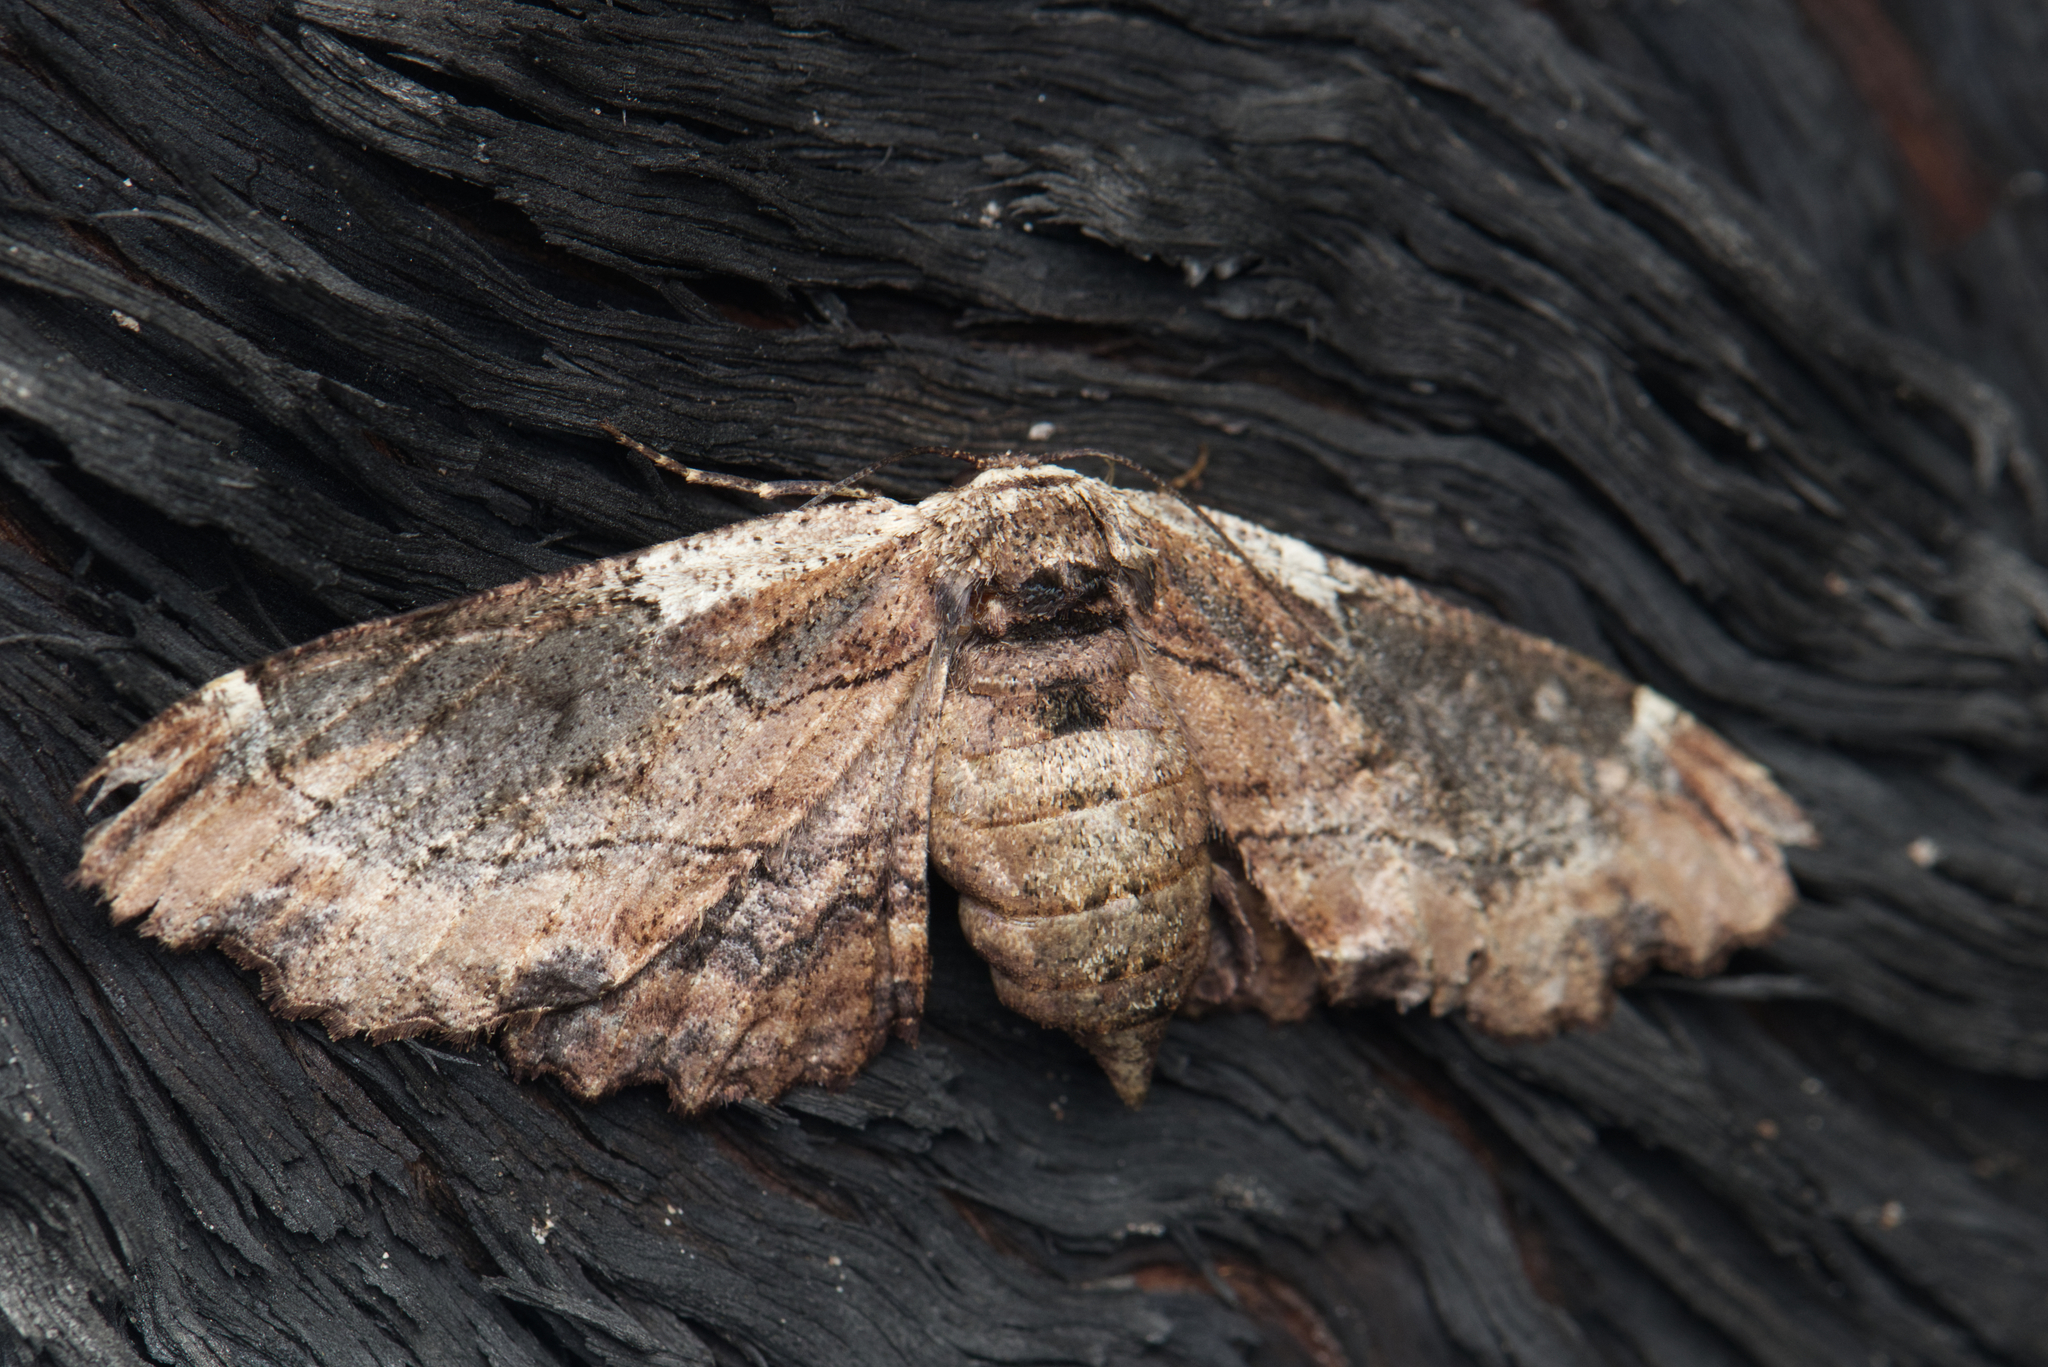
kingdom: Animalia
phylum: Arthropoda
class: Insecta
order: Lepidoptera
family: Geometridae
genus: Pholodes
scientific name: Pholodes sinistraria
